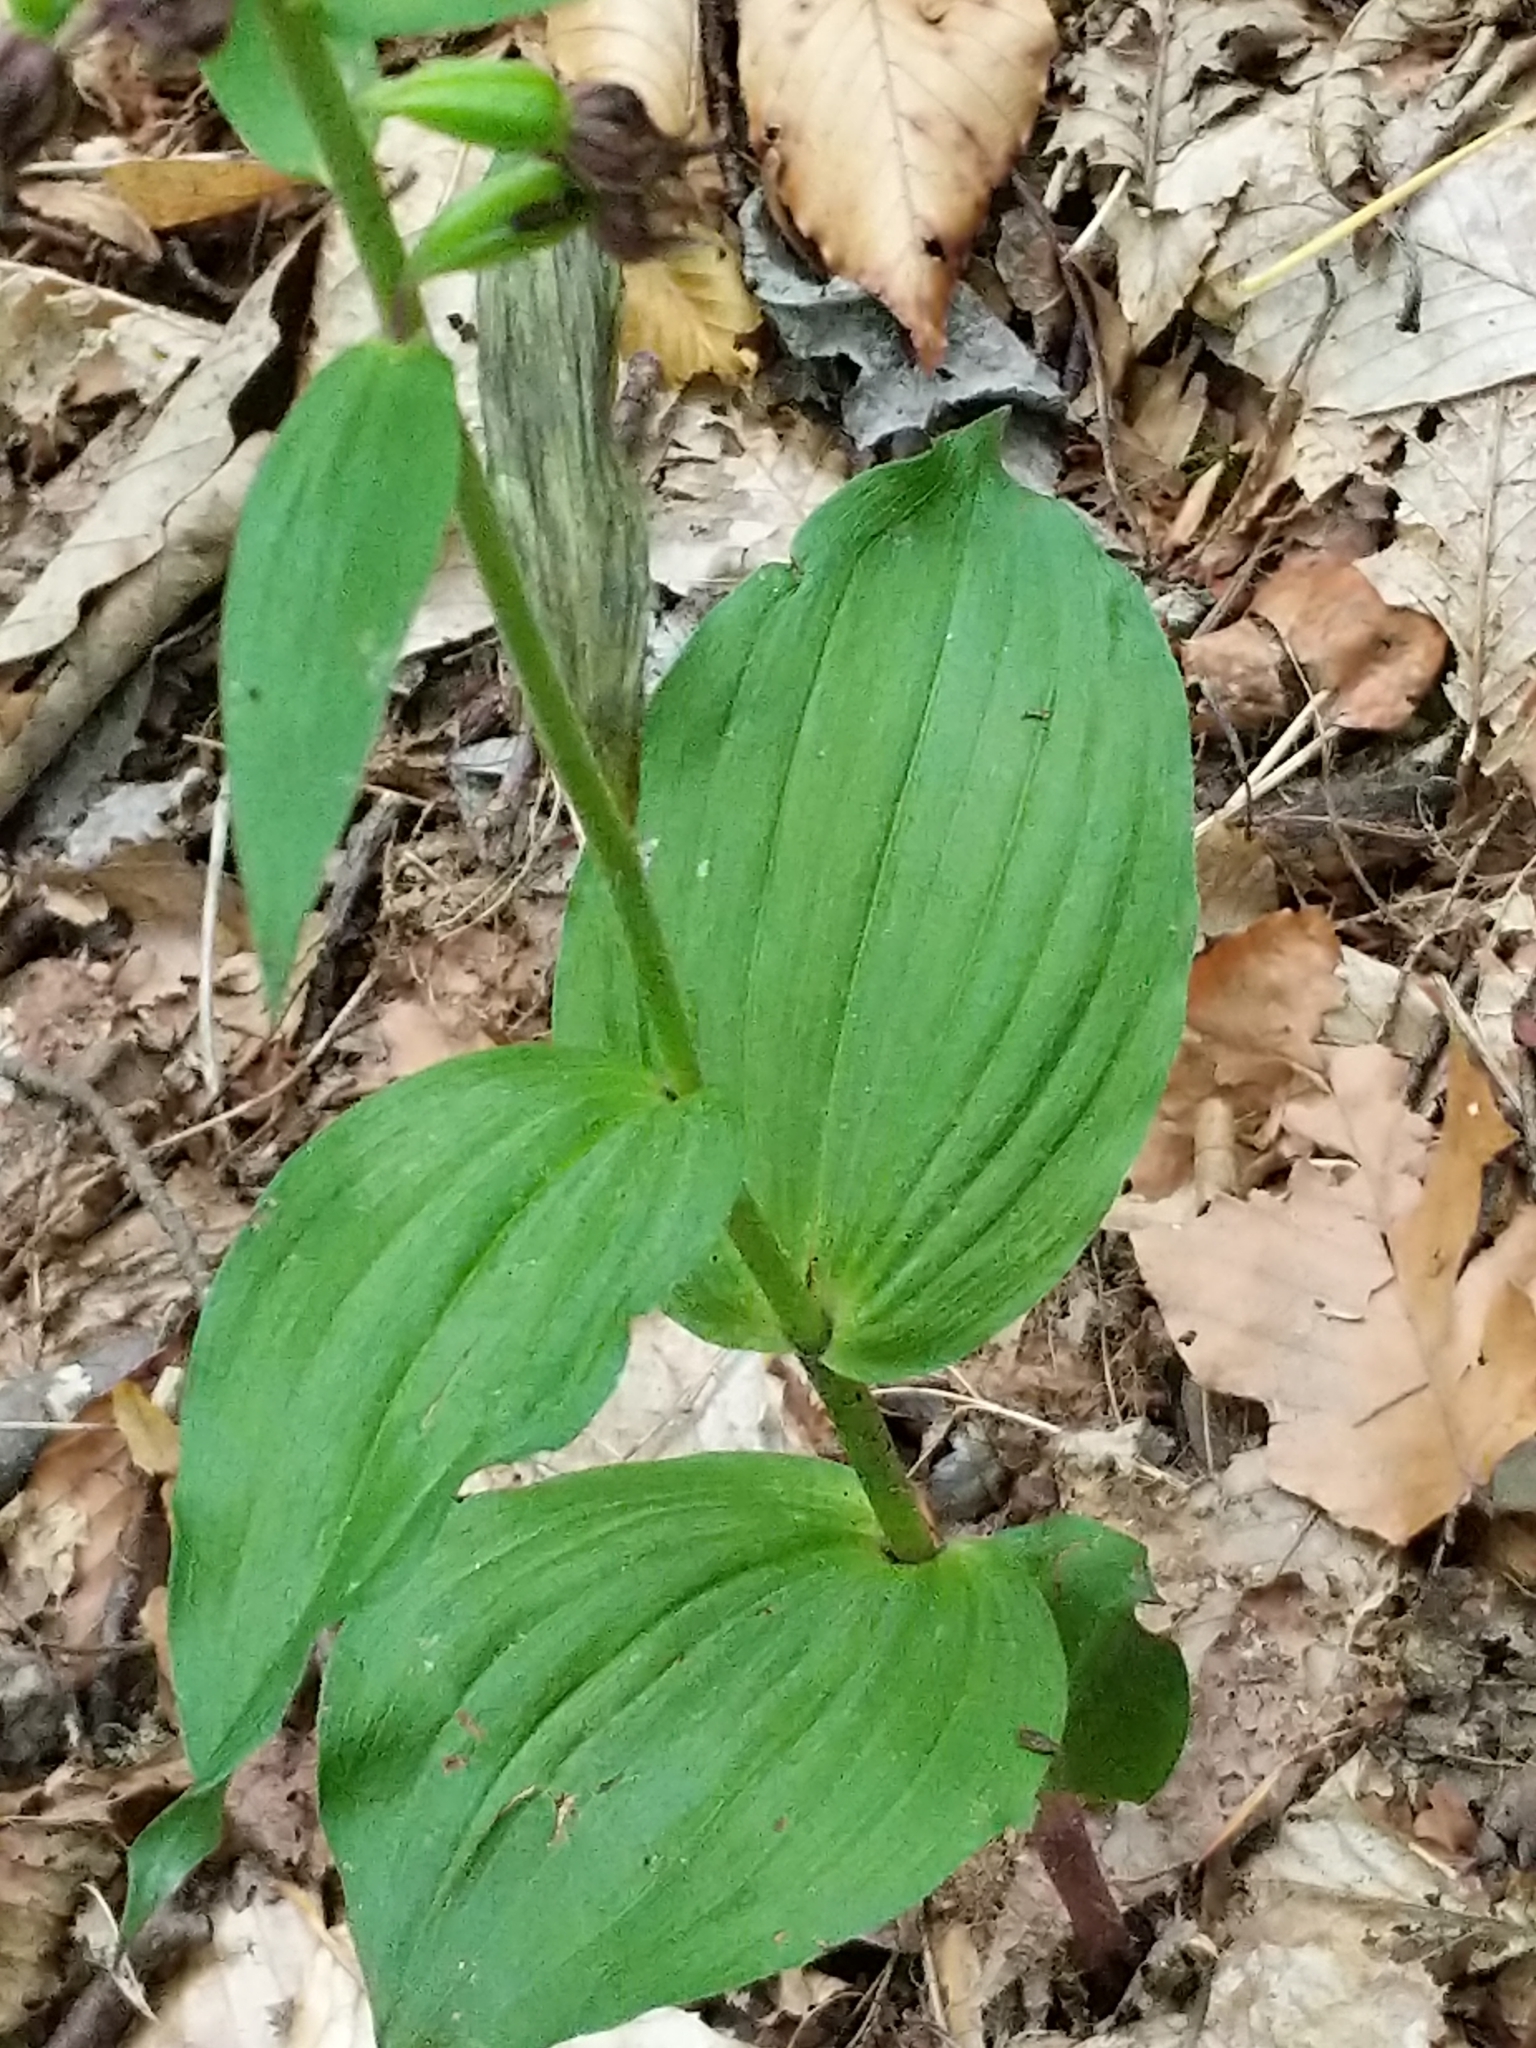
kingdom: Plantae
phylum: Tracheophyta
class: Liliopsida
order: Asparagales
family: Orchidaceae
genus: Epipactis
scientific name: Epipactis helleborine
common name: Broad-leaved helleborine
